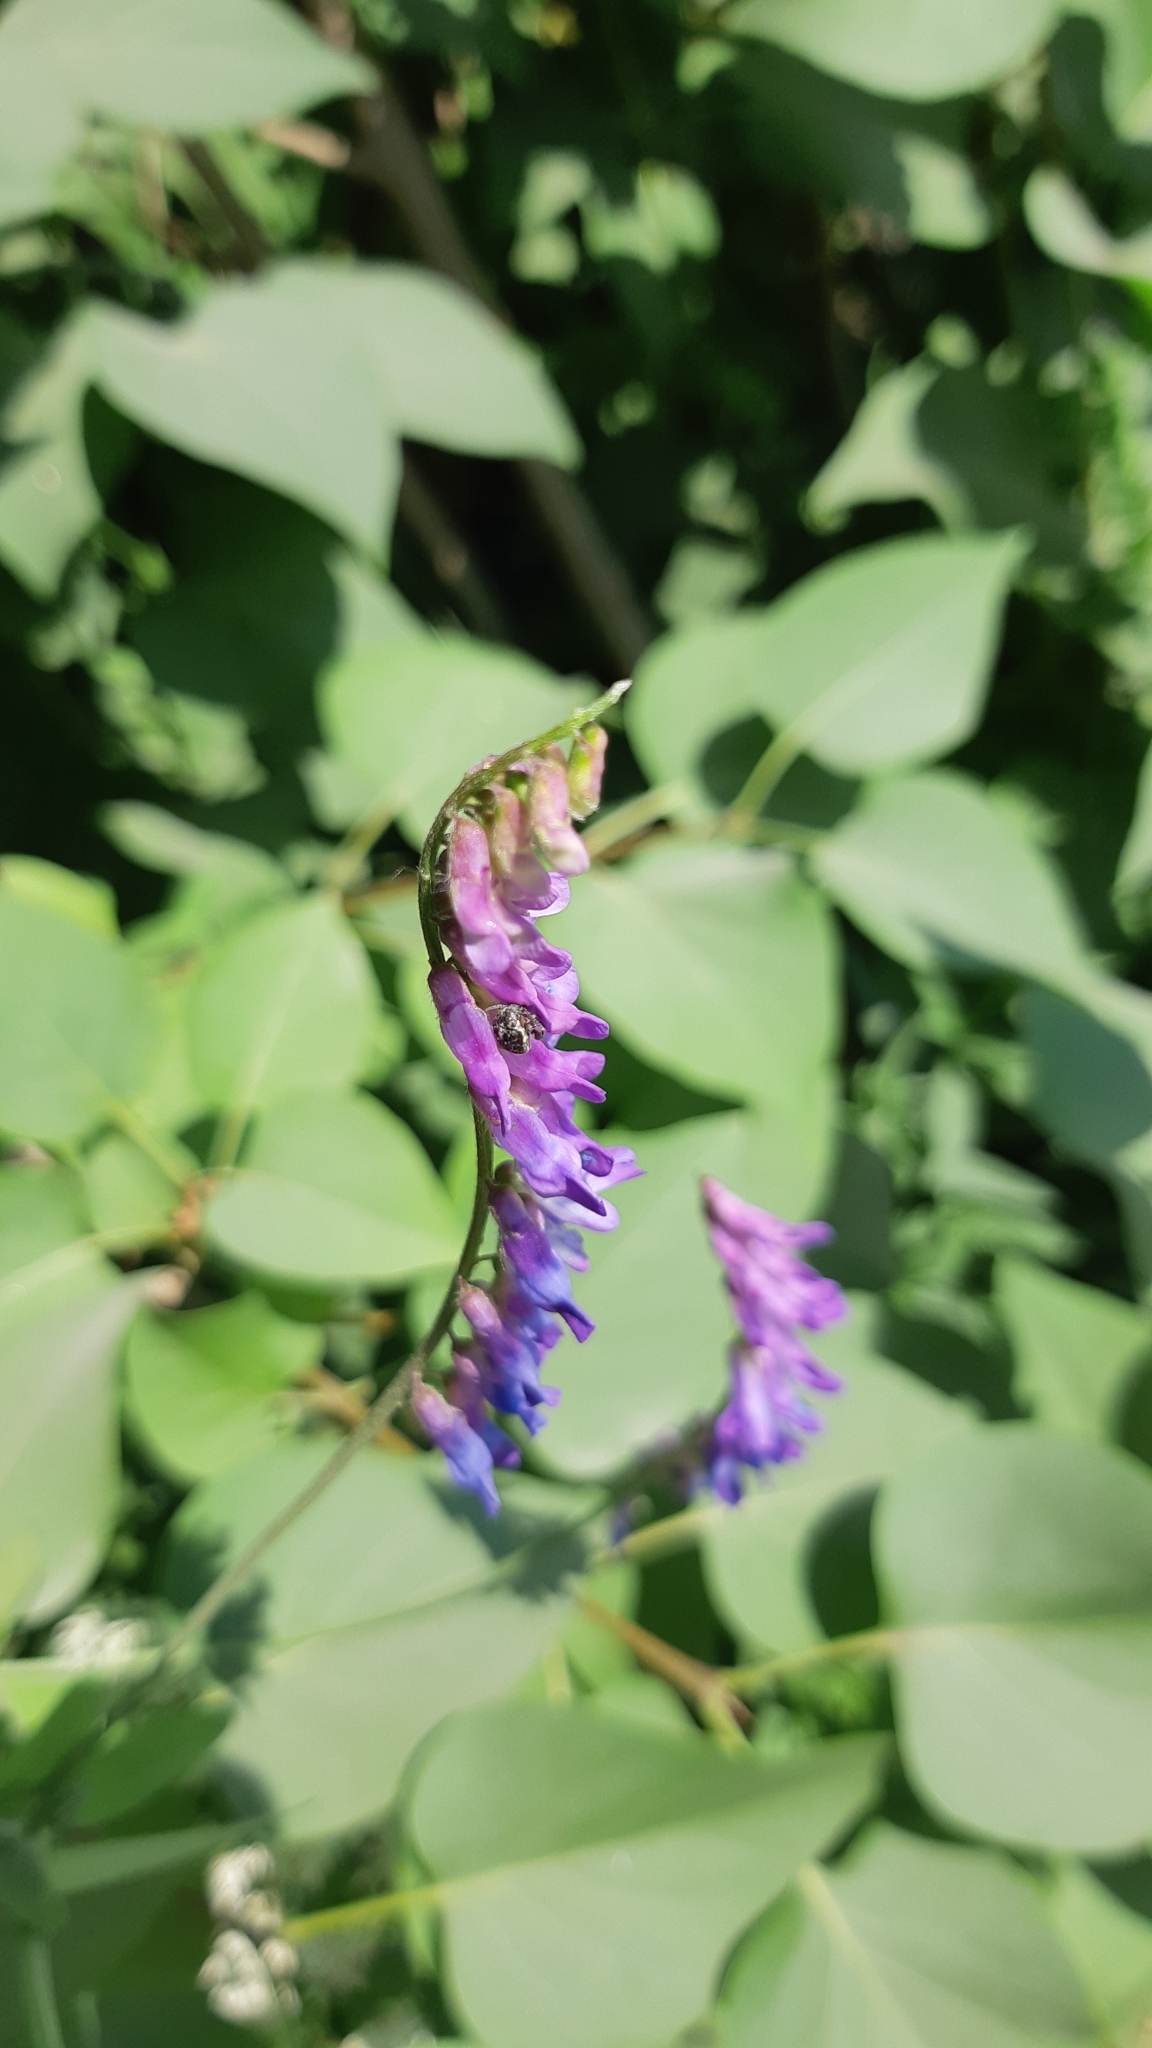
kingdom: Plantae
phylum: Tracheophyta
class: Magnoliopsida
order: Fabales
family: Fabaceae
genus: Vicia
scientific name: Vicia cracca
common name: Bird vetch
